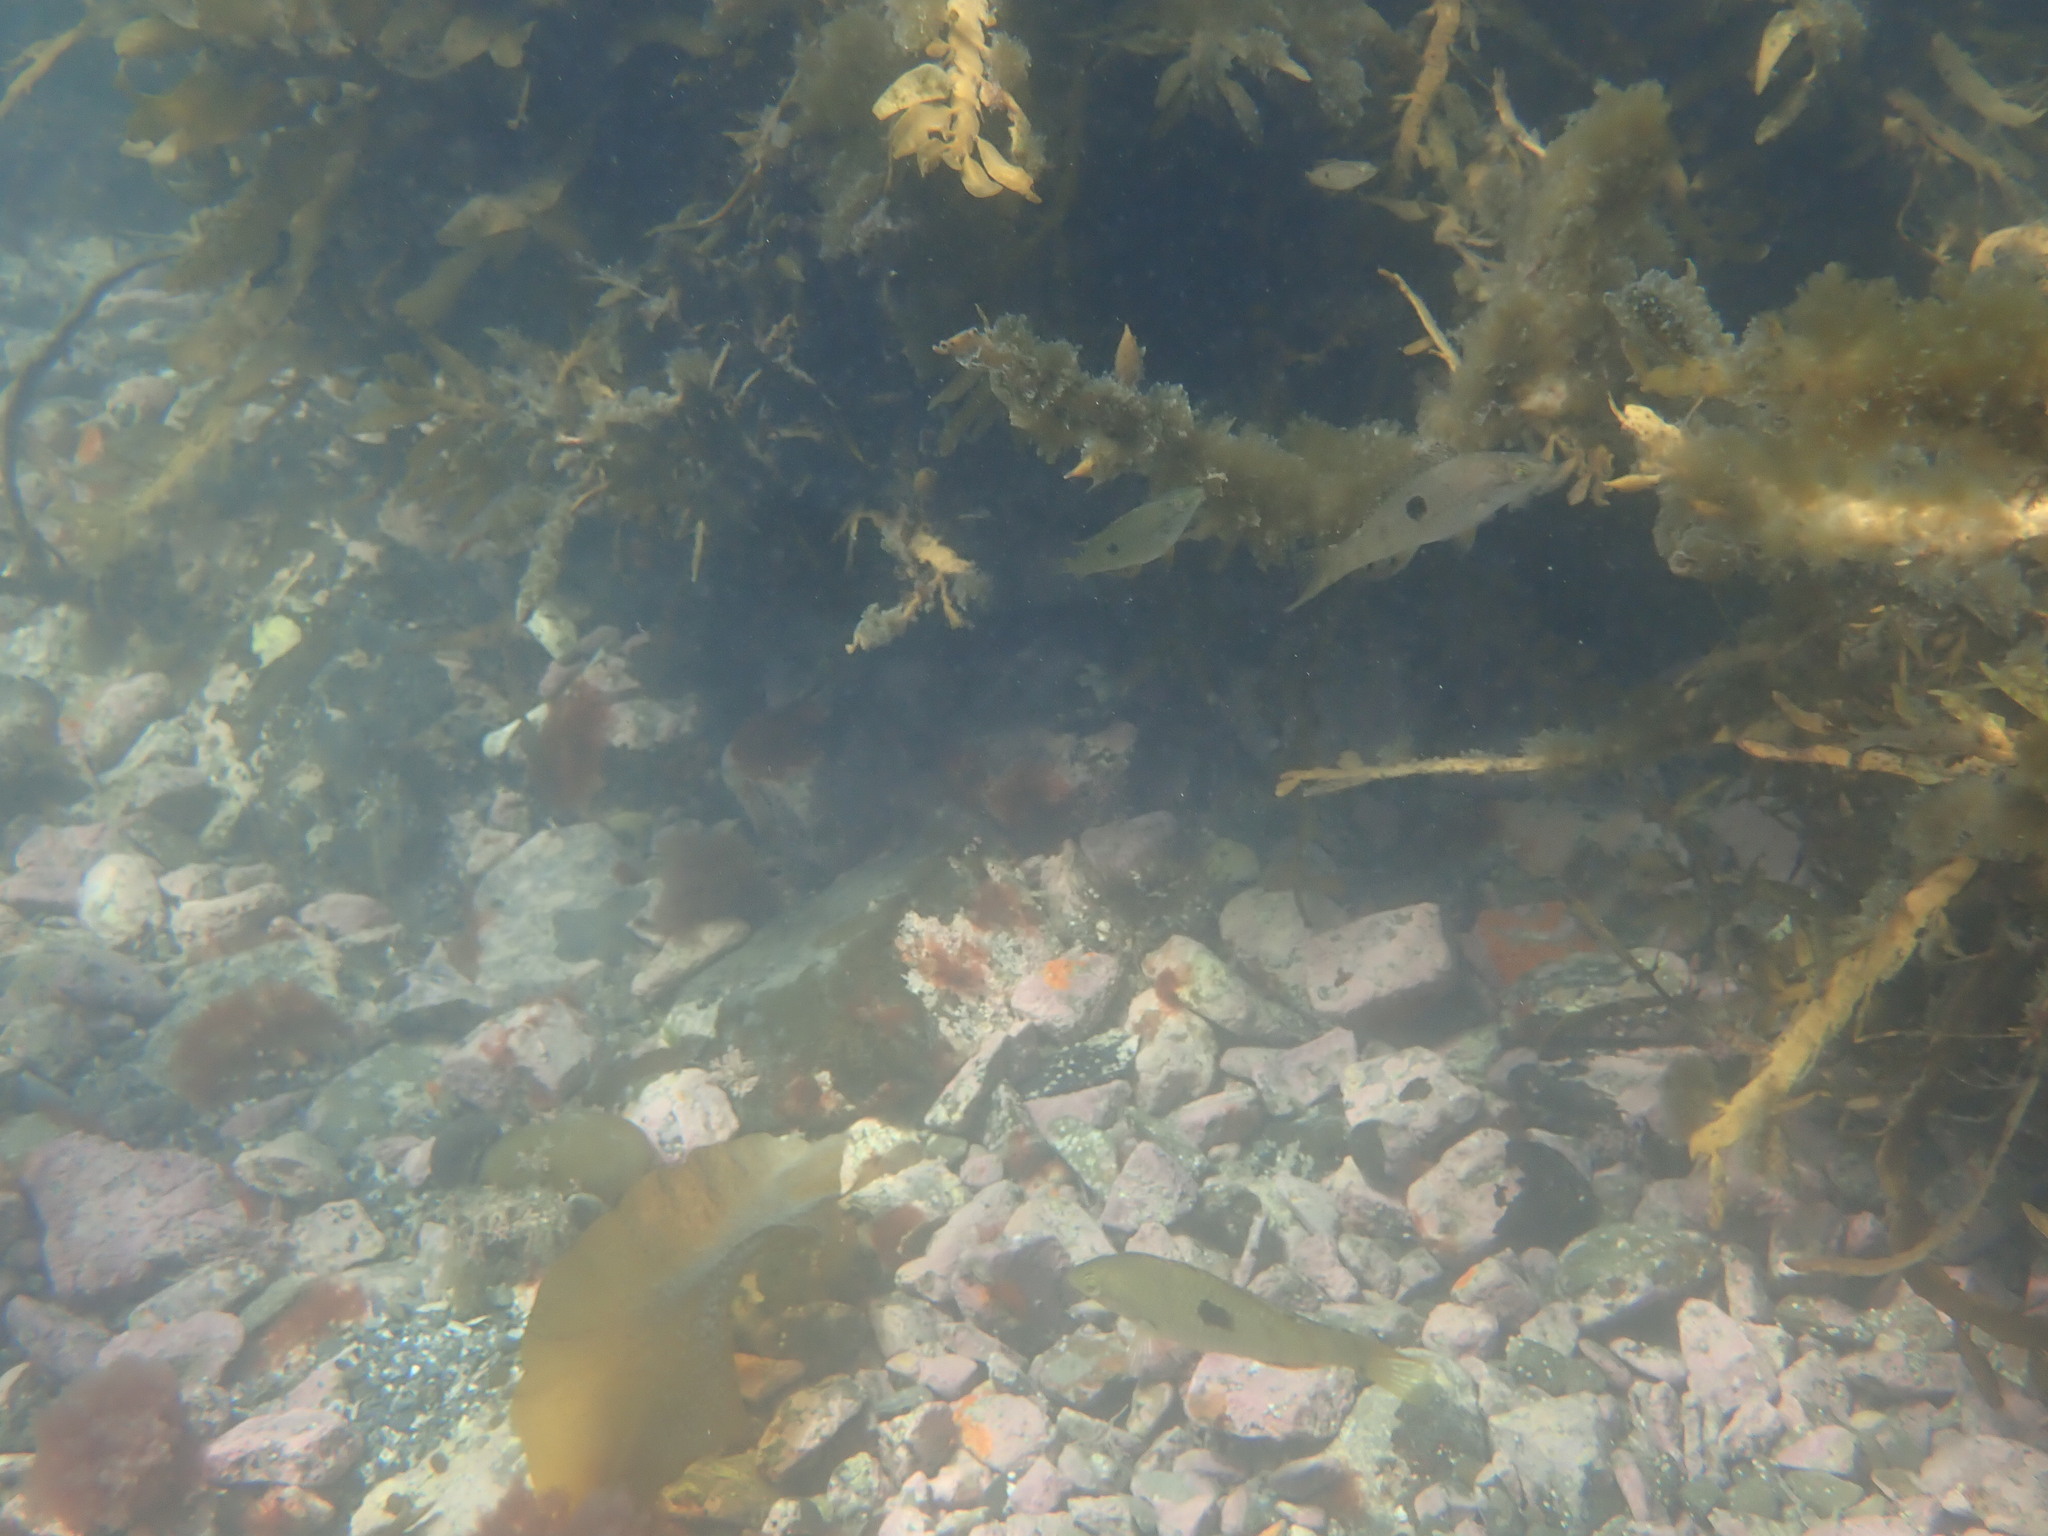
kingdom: Animalia
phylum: Chordata
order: Perciformes
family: Labridae
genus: Notolabrus
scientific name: Notolabrus celidotus
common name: Spotty
